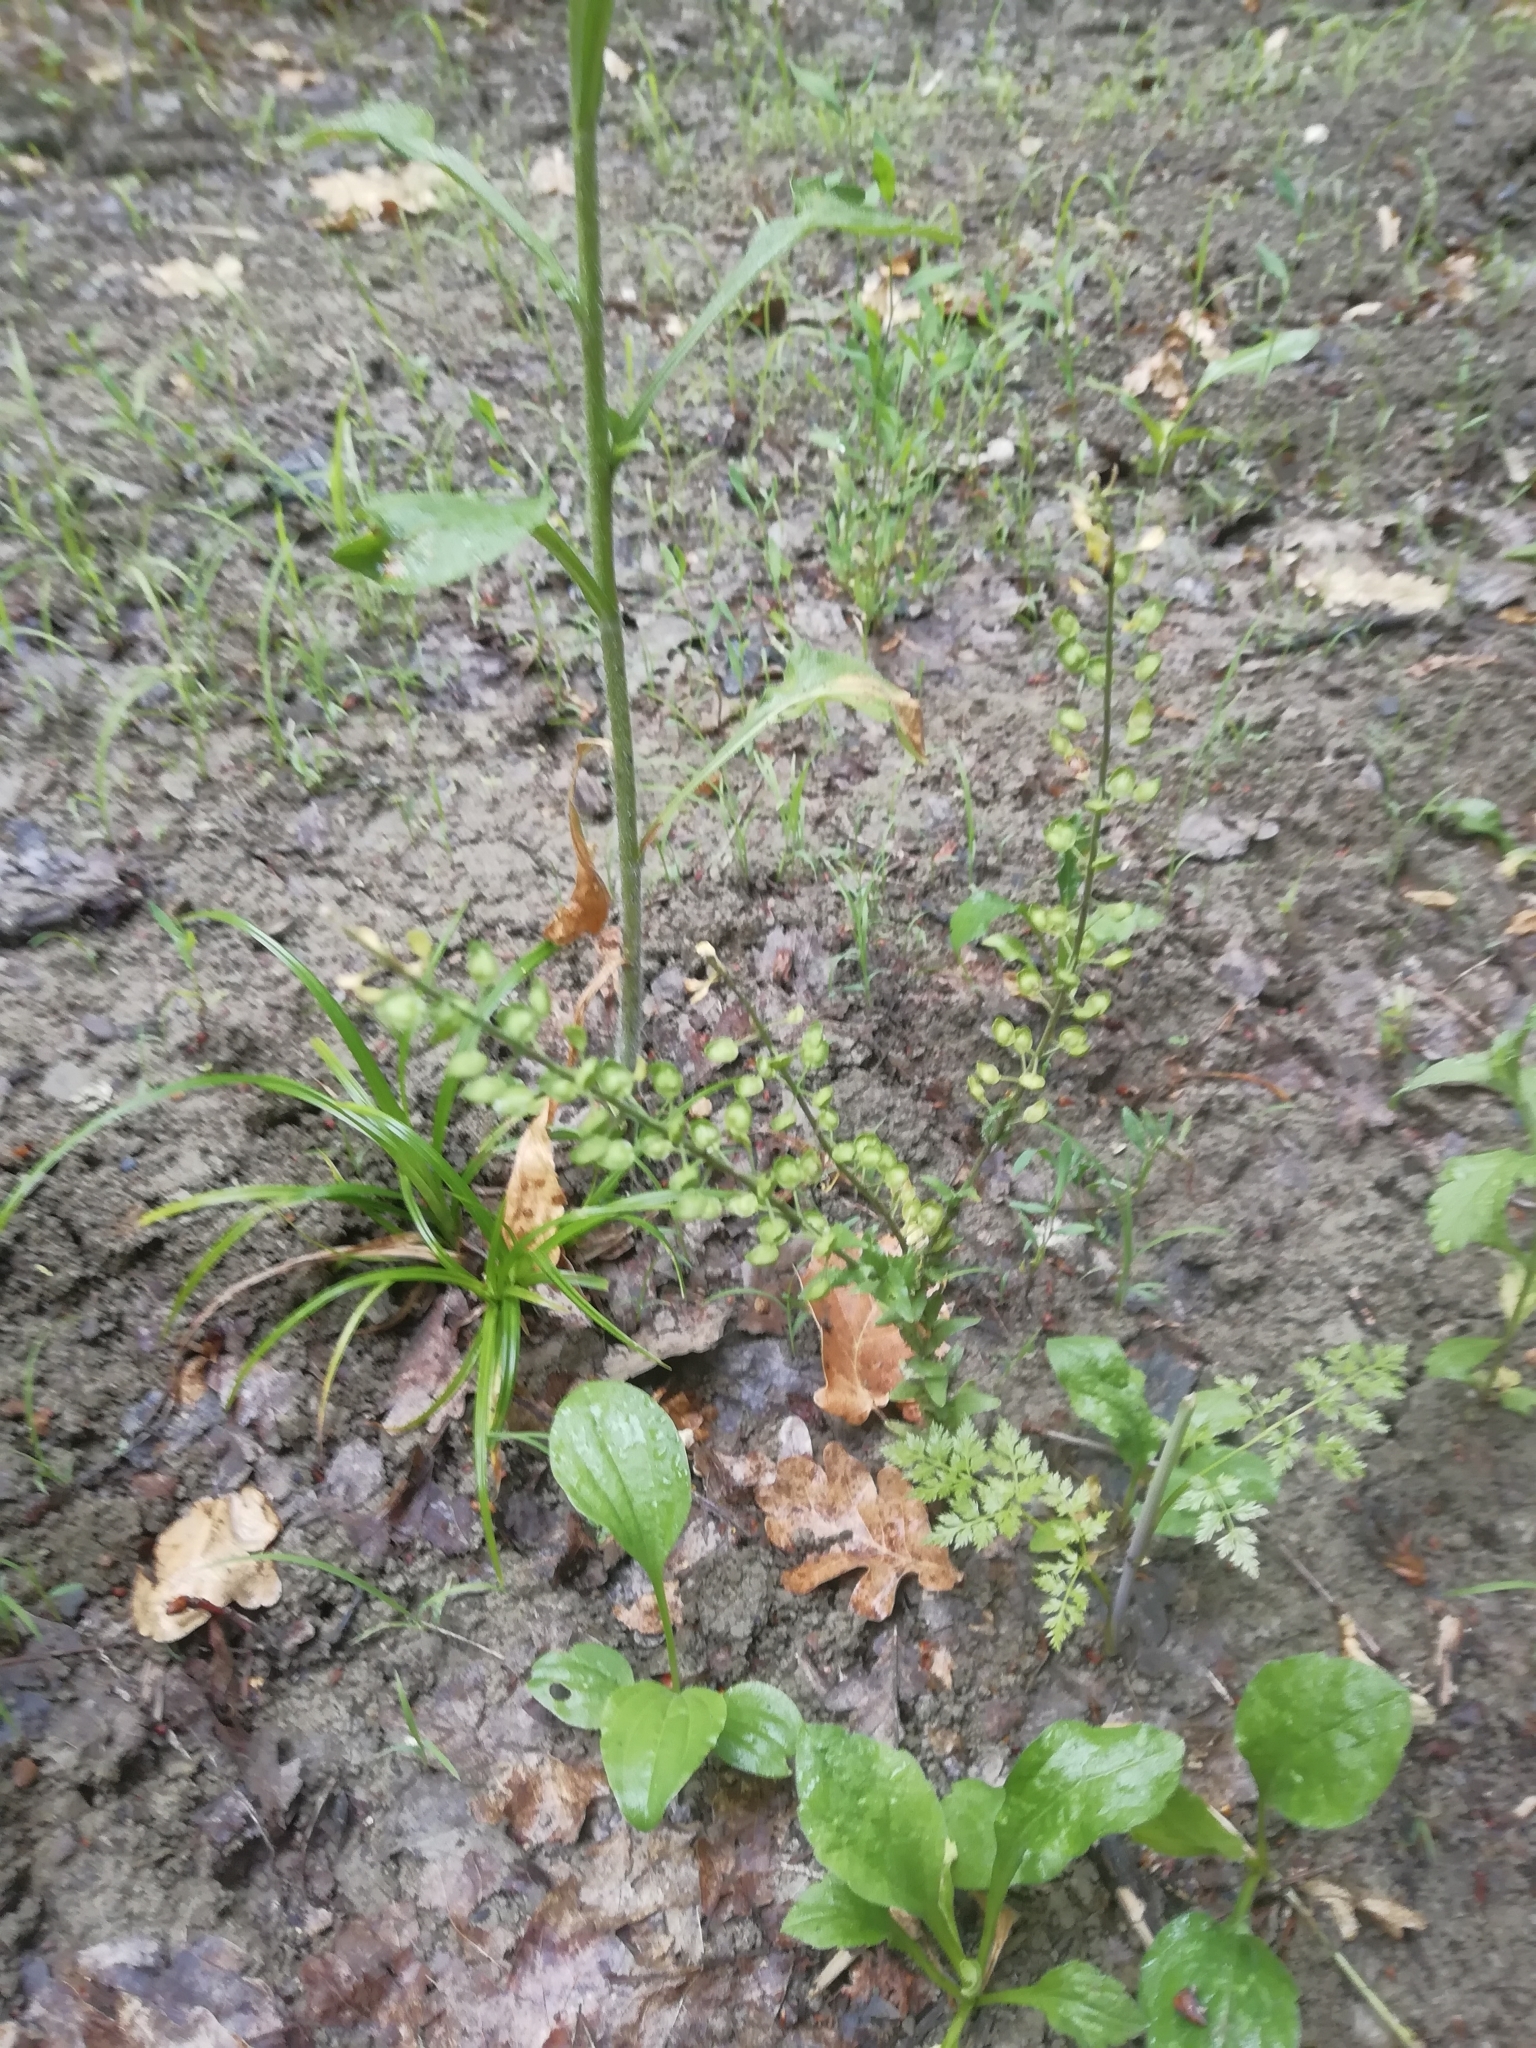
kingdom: Plantae
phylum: Tracheophyta
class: Magnoliopsida
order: Brassicales
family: Brassicaceae
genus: Noccaea
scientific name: Noccaea perfoliata
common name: Perfoliate pennycress
